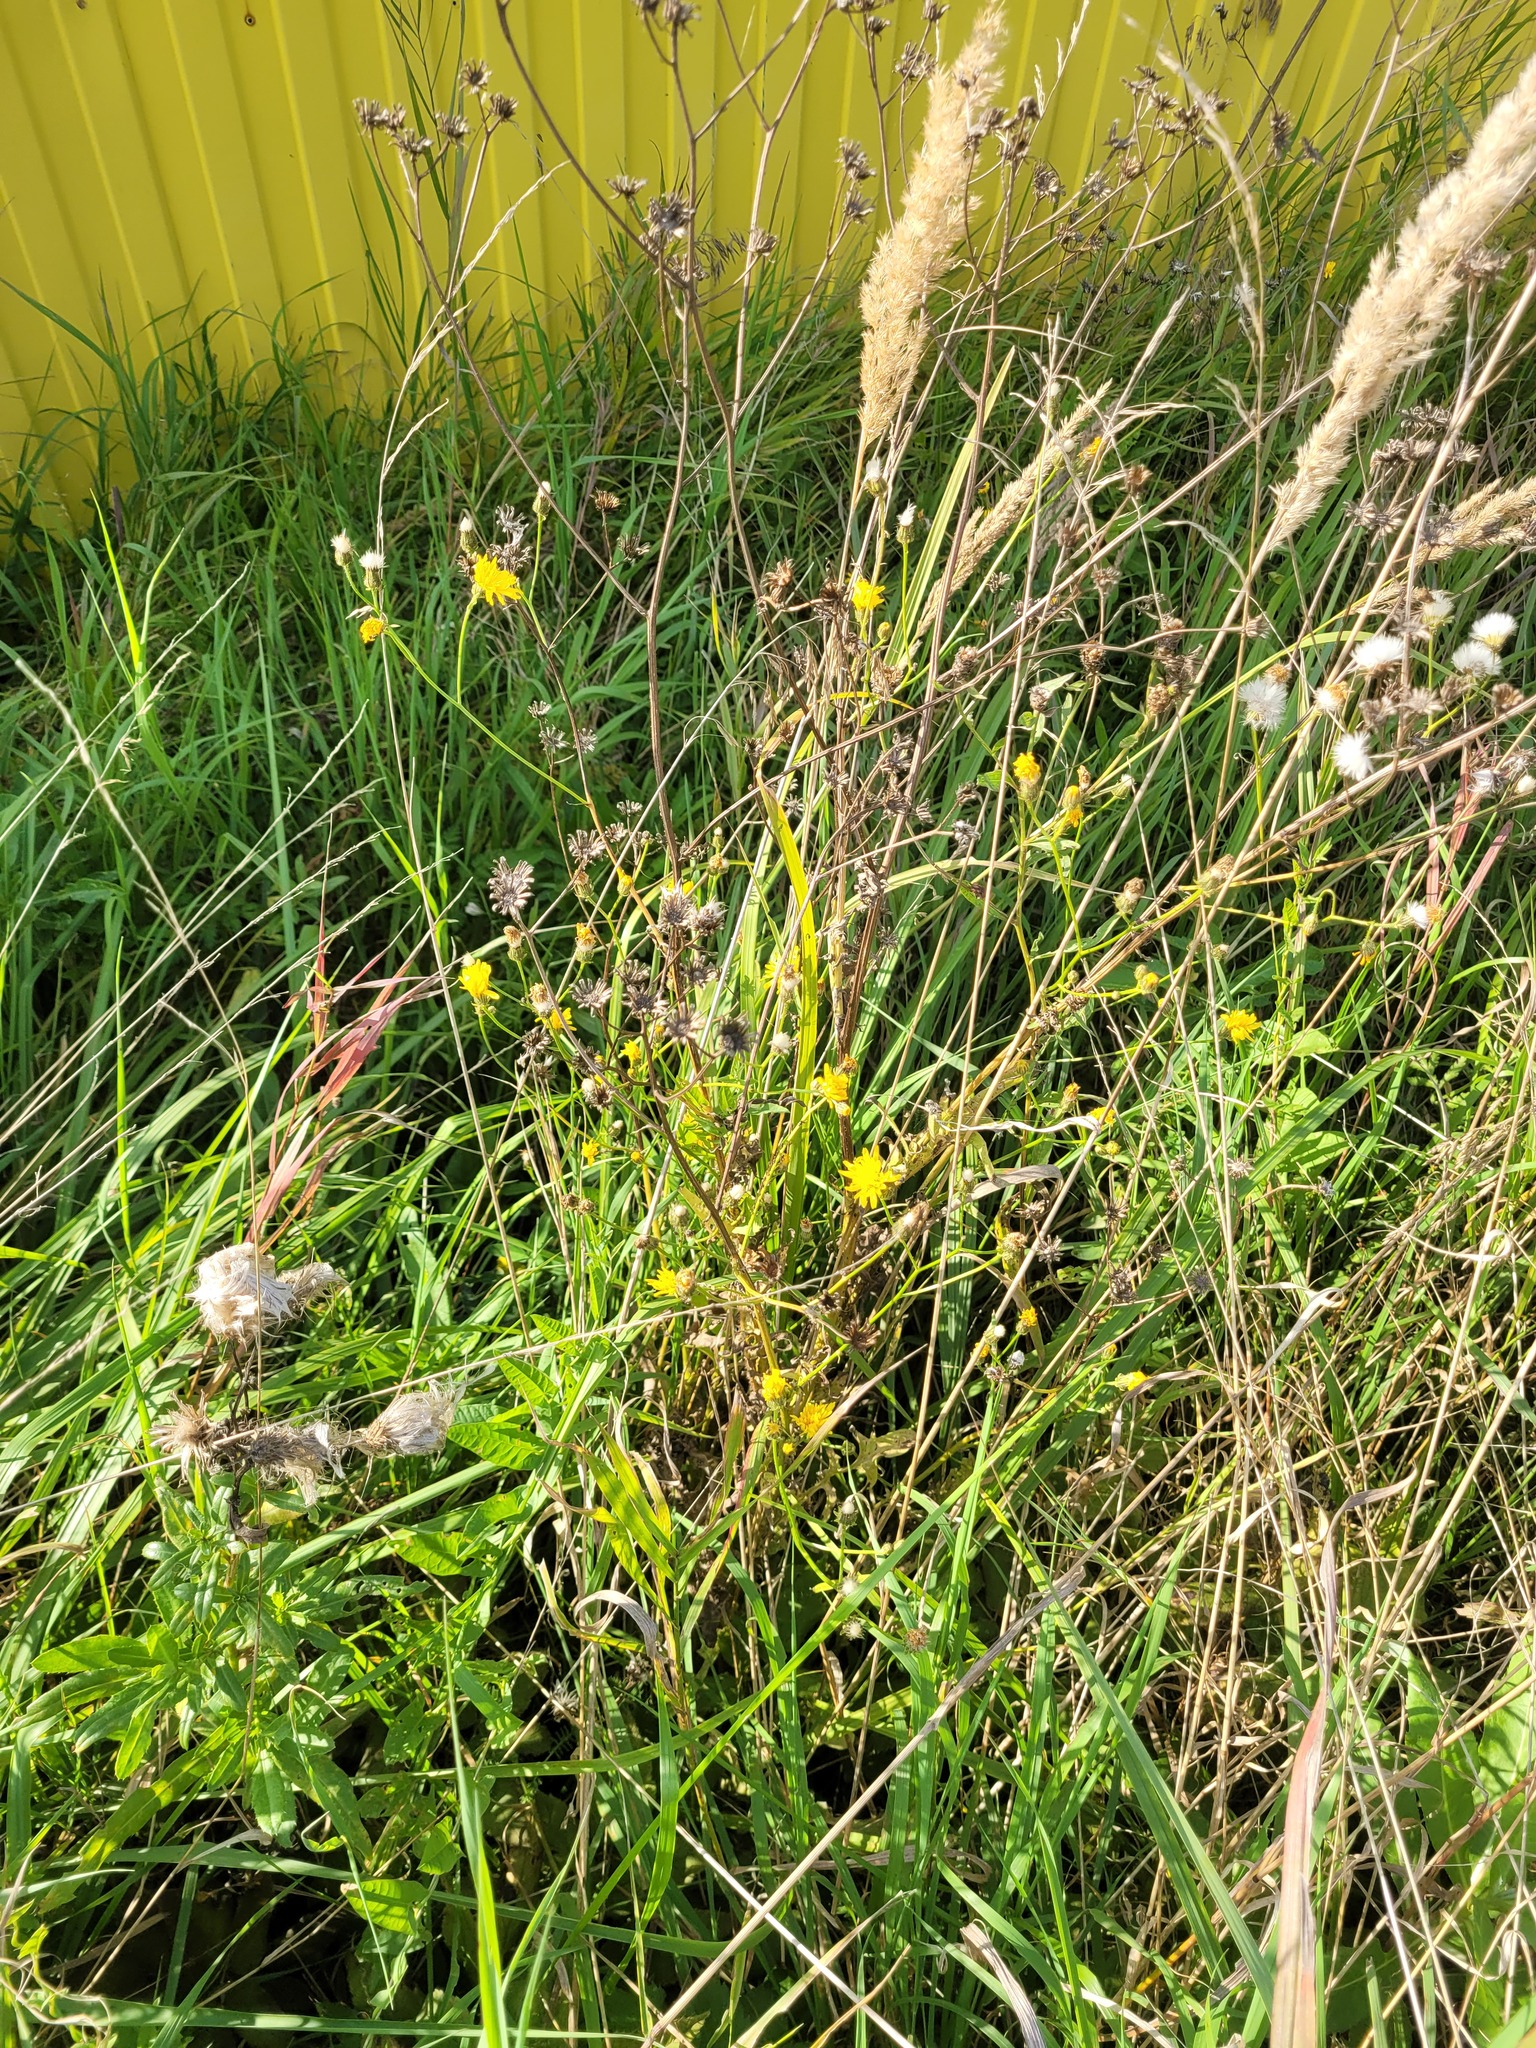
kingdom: Plantae
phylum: Tracheophyta
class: Magnoliopsida
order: Asterales
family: Asteraceae
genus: Crepis
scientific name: Crepis biennis
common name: Rough hawk's-beard
